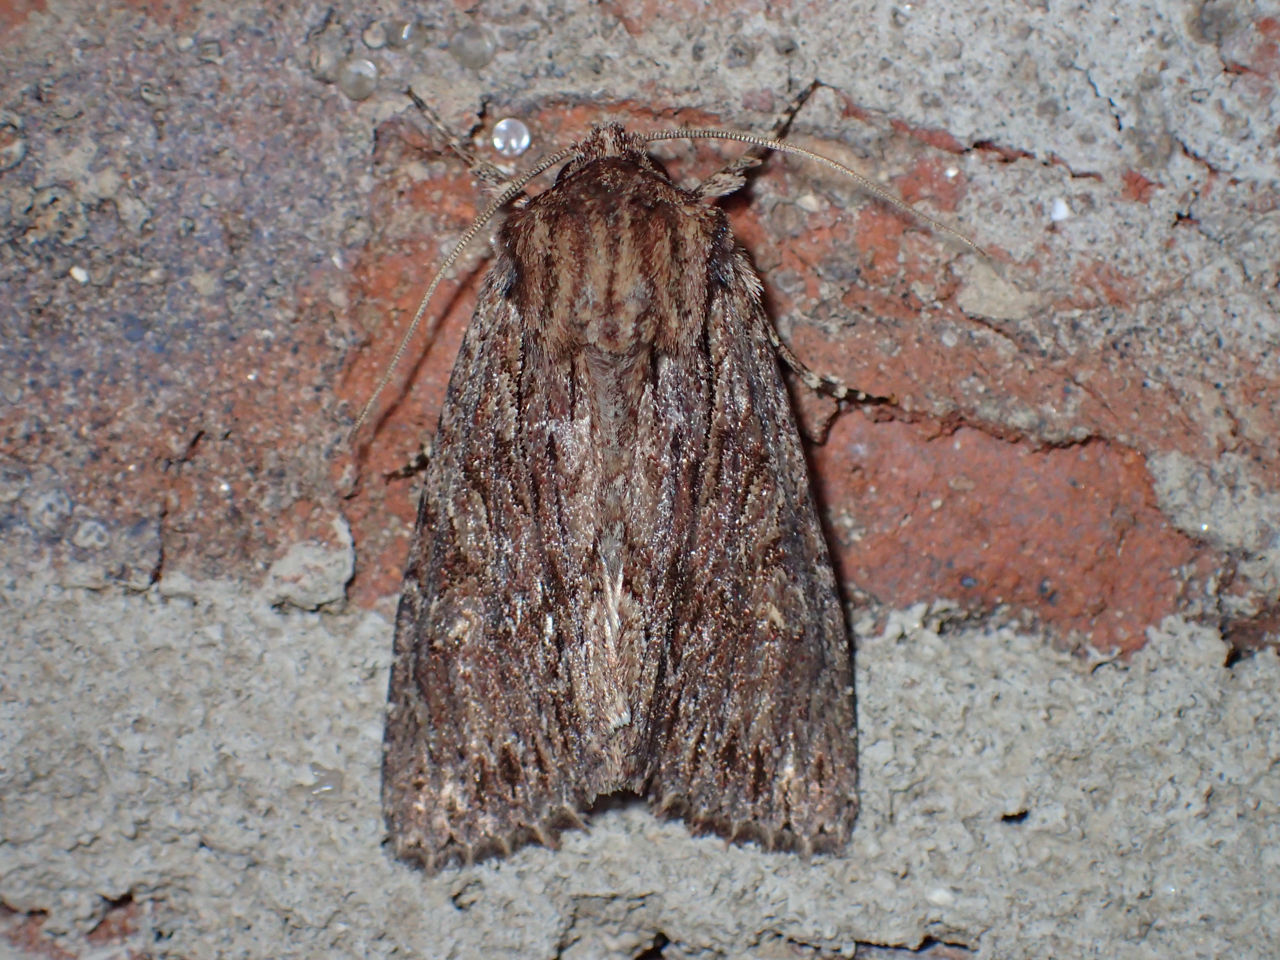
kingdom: Animalia
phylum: Arthropoda
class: Insecta
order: Lepidoptera
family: Noctuidae
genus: Achatia
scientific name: Achatia confusa
